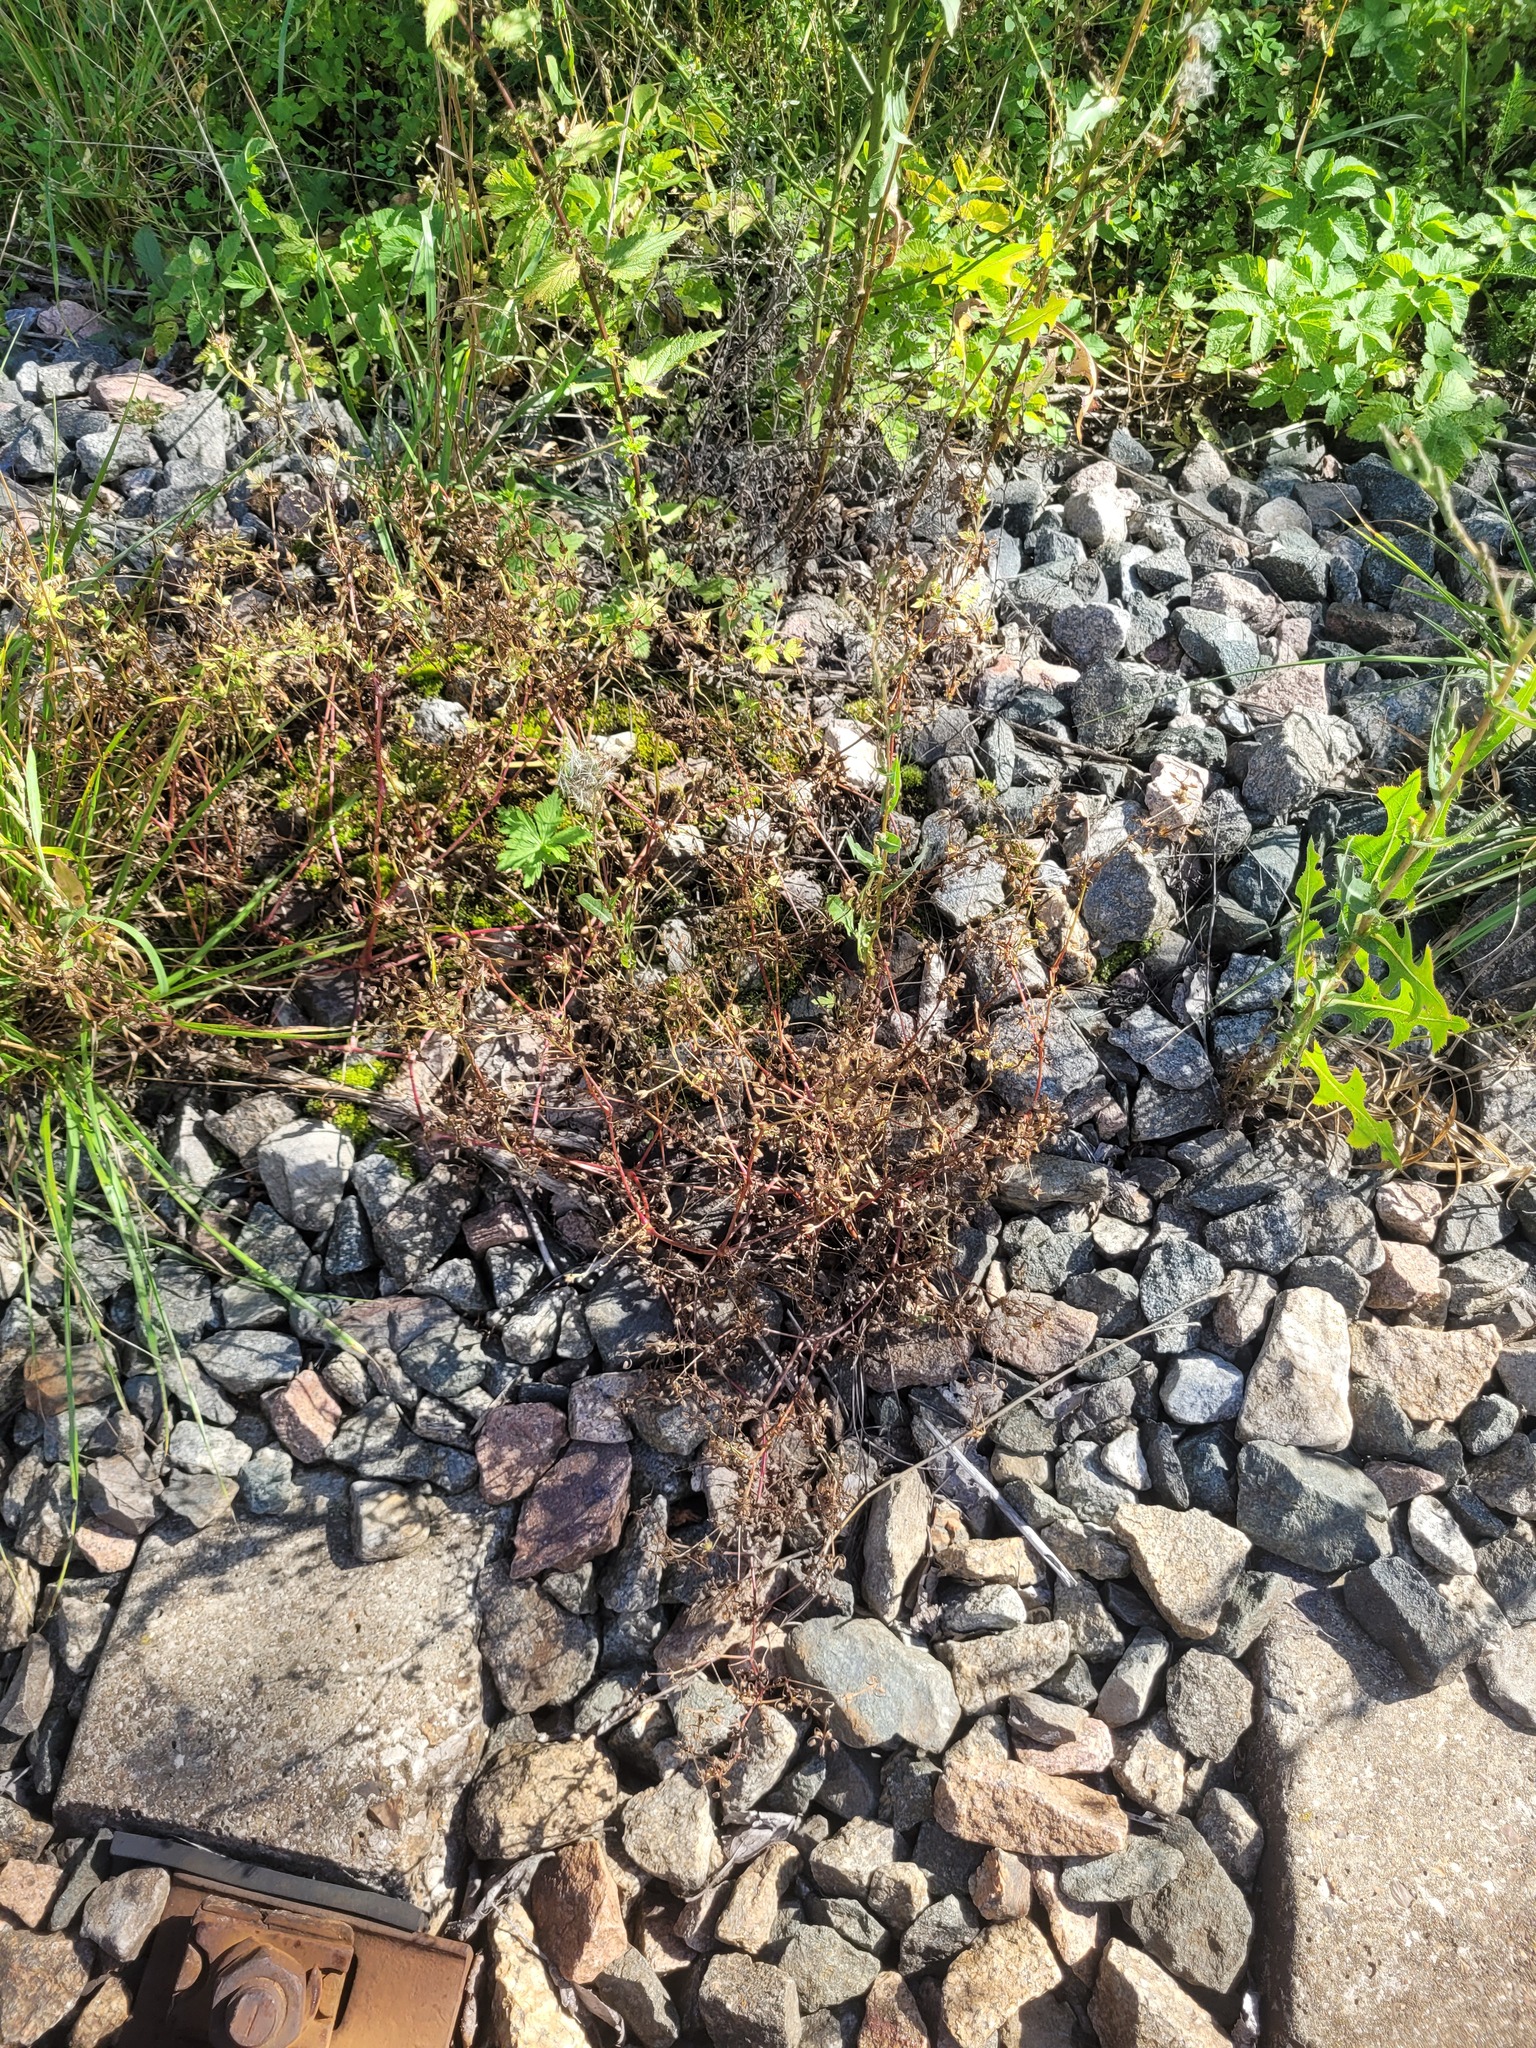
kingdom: Plantae
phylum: Tracheophyta
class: Magnoliopsida
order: Geraniales
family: Geraniaceae
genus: Geranium
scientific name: Geranium sibiricum
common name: Siberian crane's-bill
